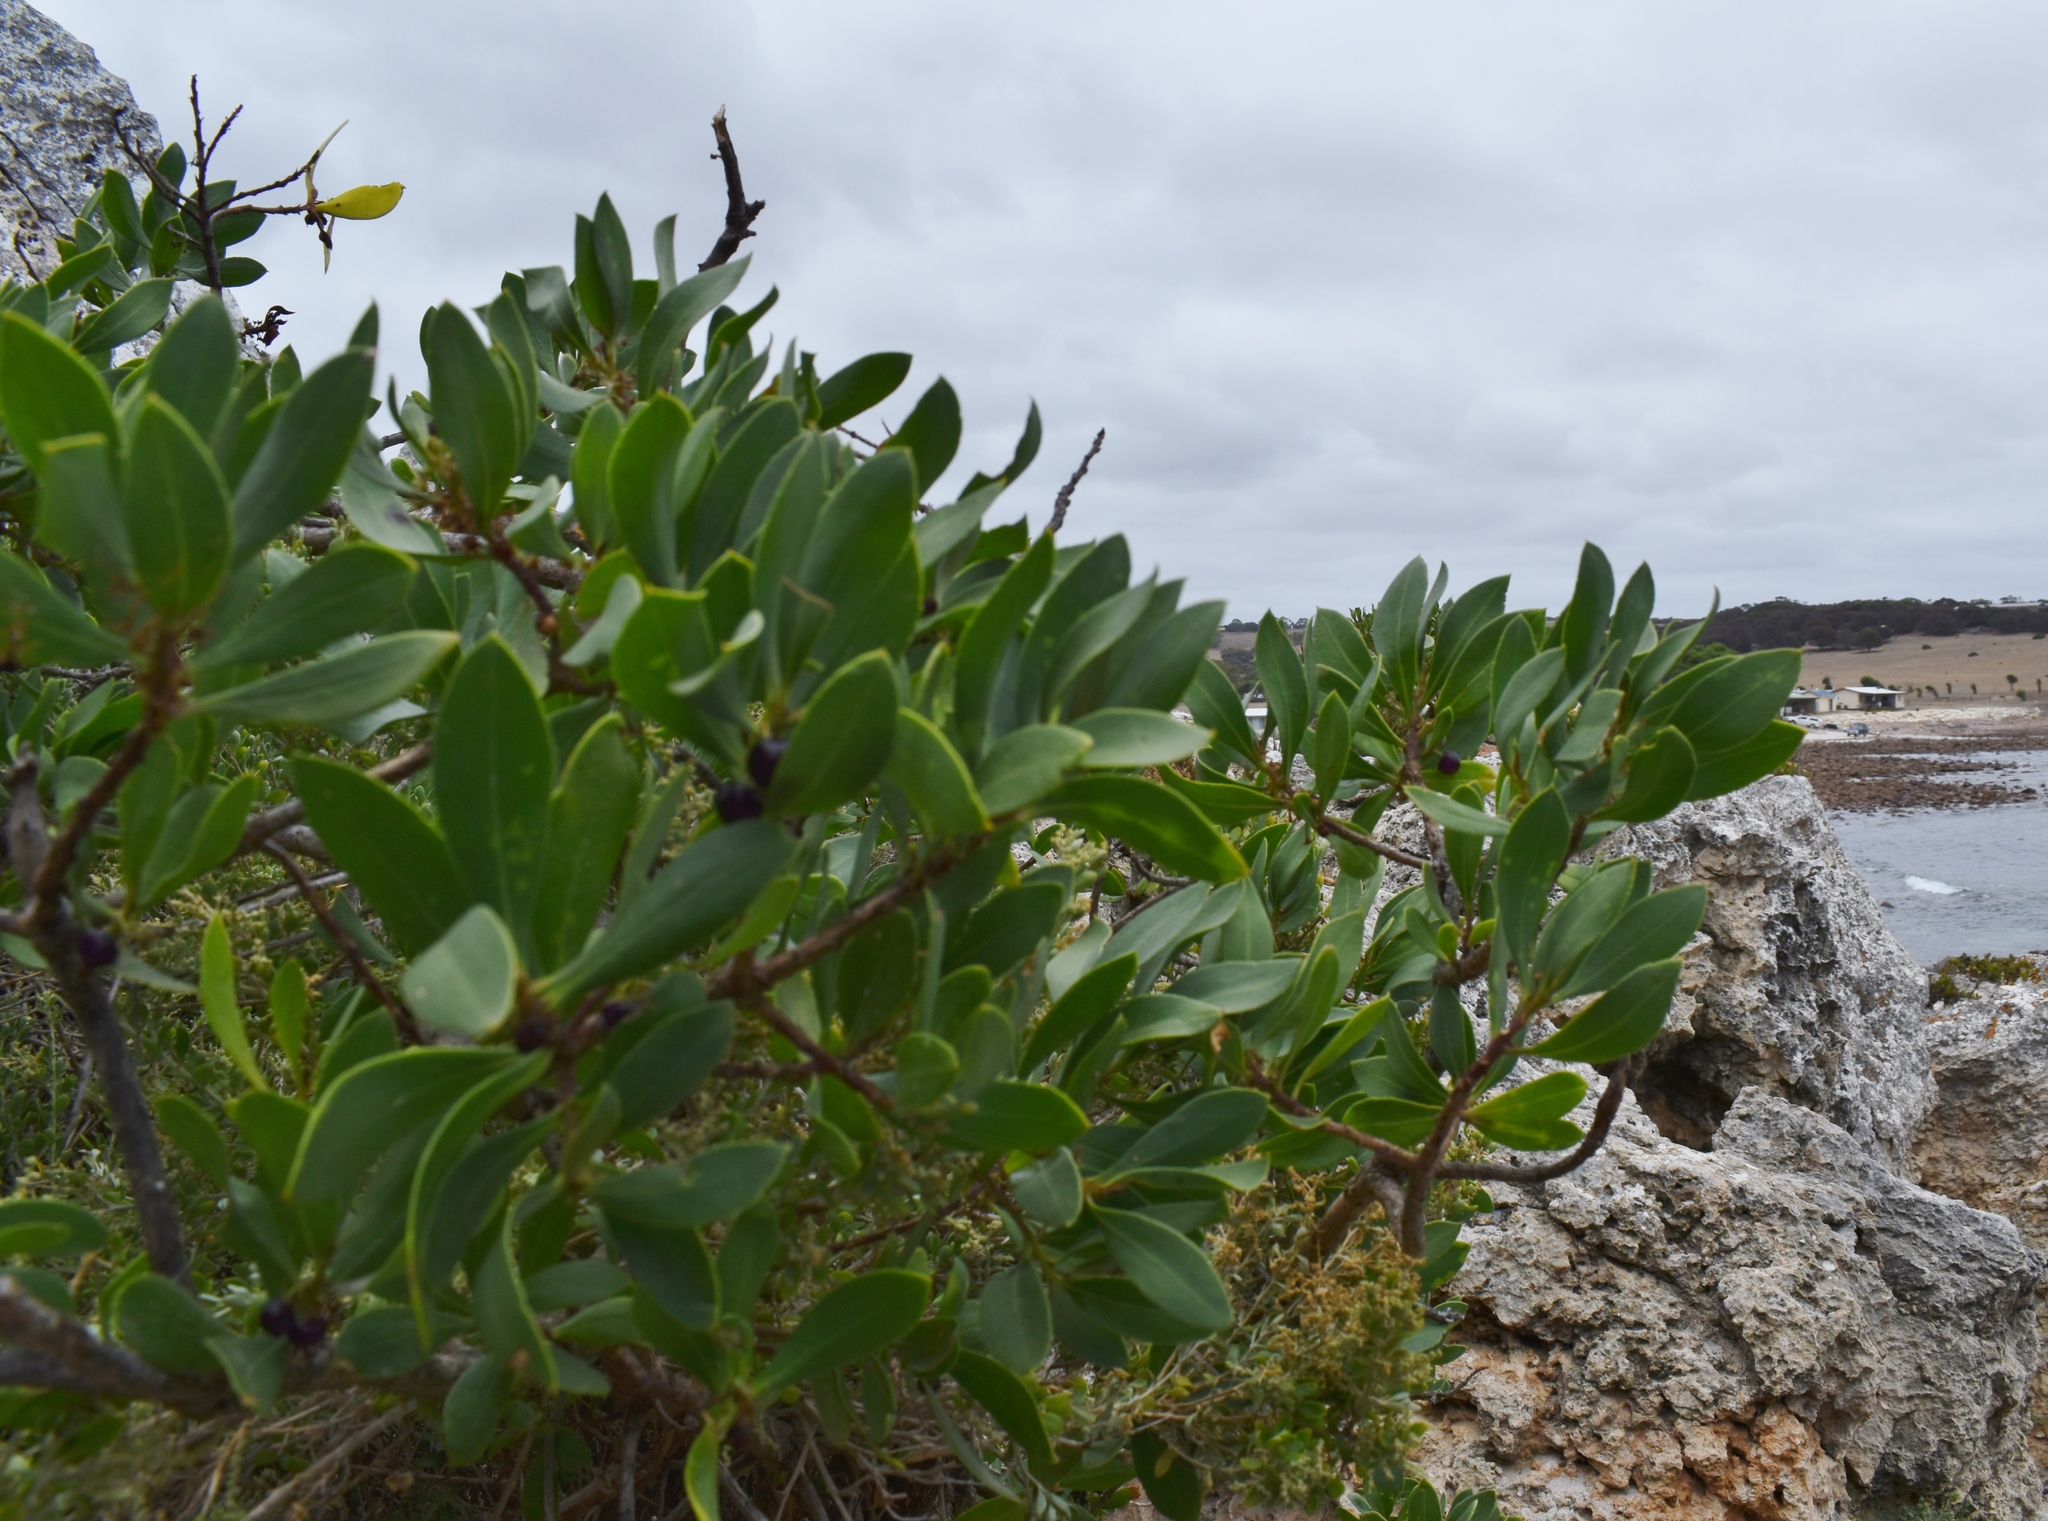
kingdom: Plantae
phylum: Tracheophyta
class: Magnoliopsida
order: Lamiales
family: Scrophulariaceae
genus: Myoporum
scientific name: Myoporum insulare
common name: Common boobialla
